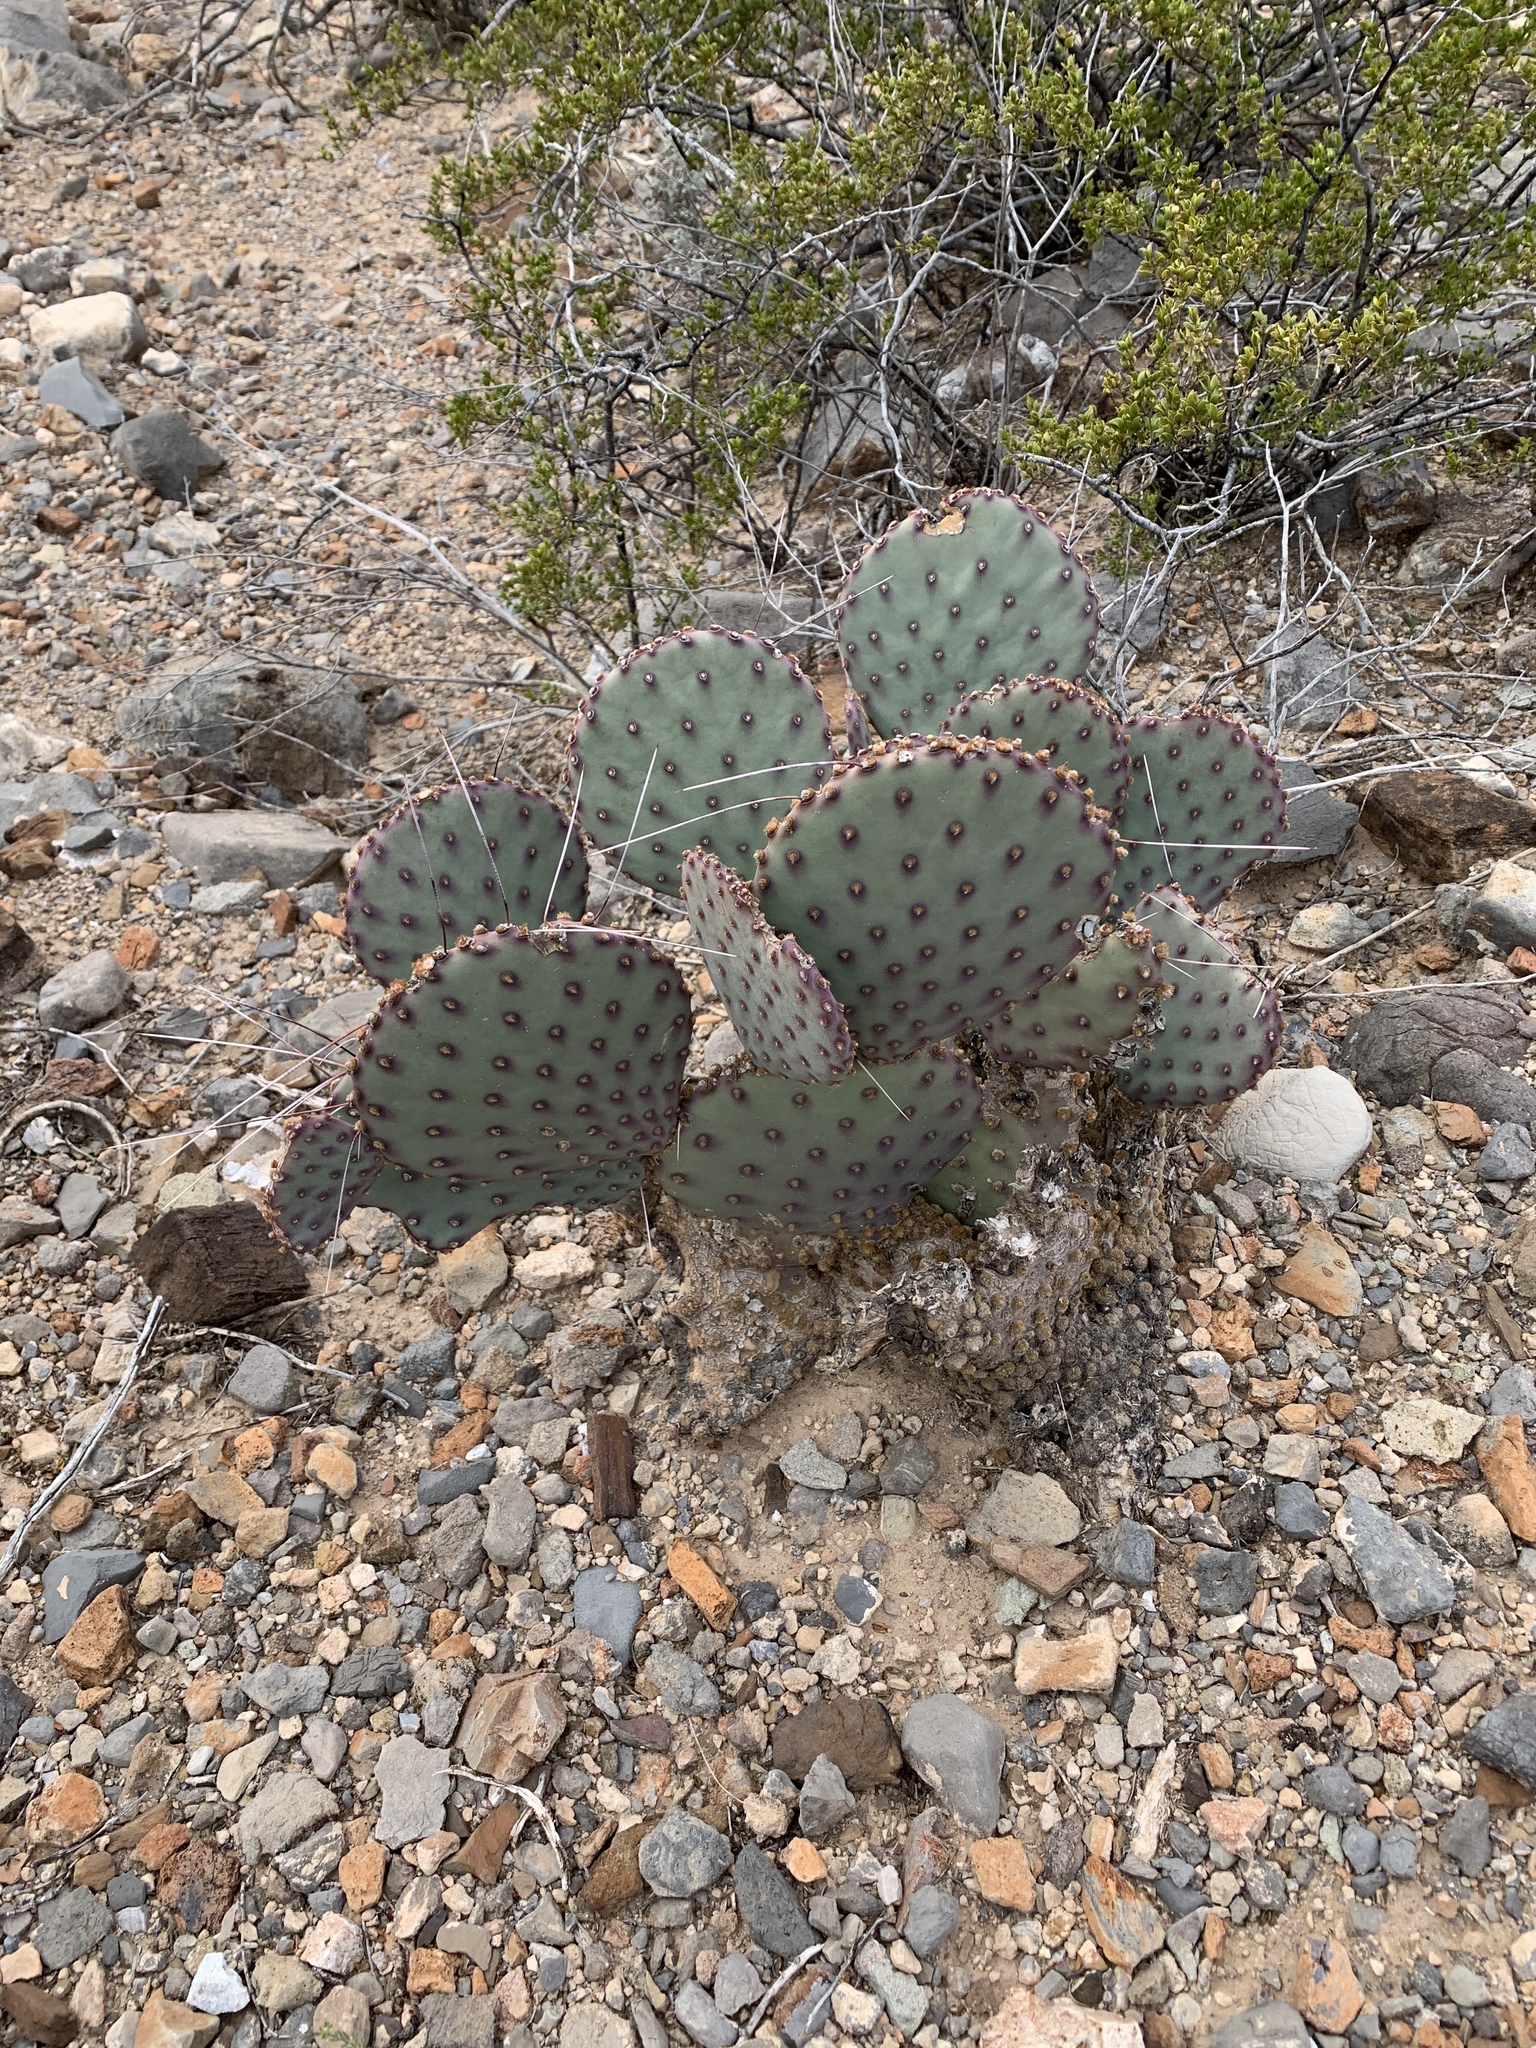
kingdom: Plantae
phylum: Tracheophyta
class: Magnoliopsida
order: Caryophyllales
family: Cactaceae
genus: Opuntia
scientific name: Opuntia macrocentra
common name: Purple prickly-pear
